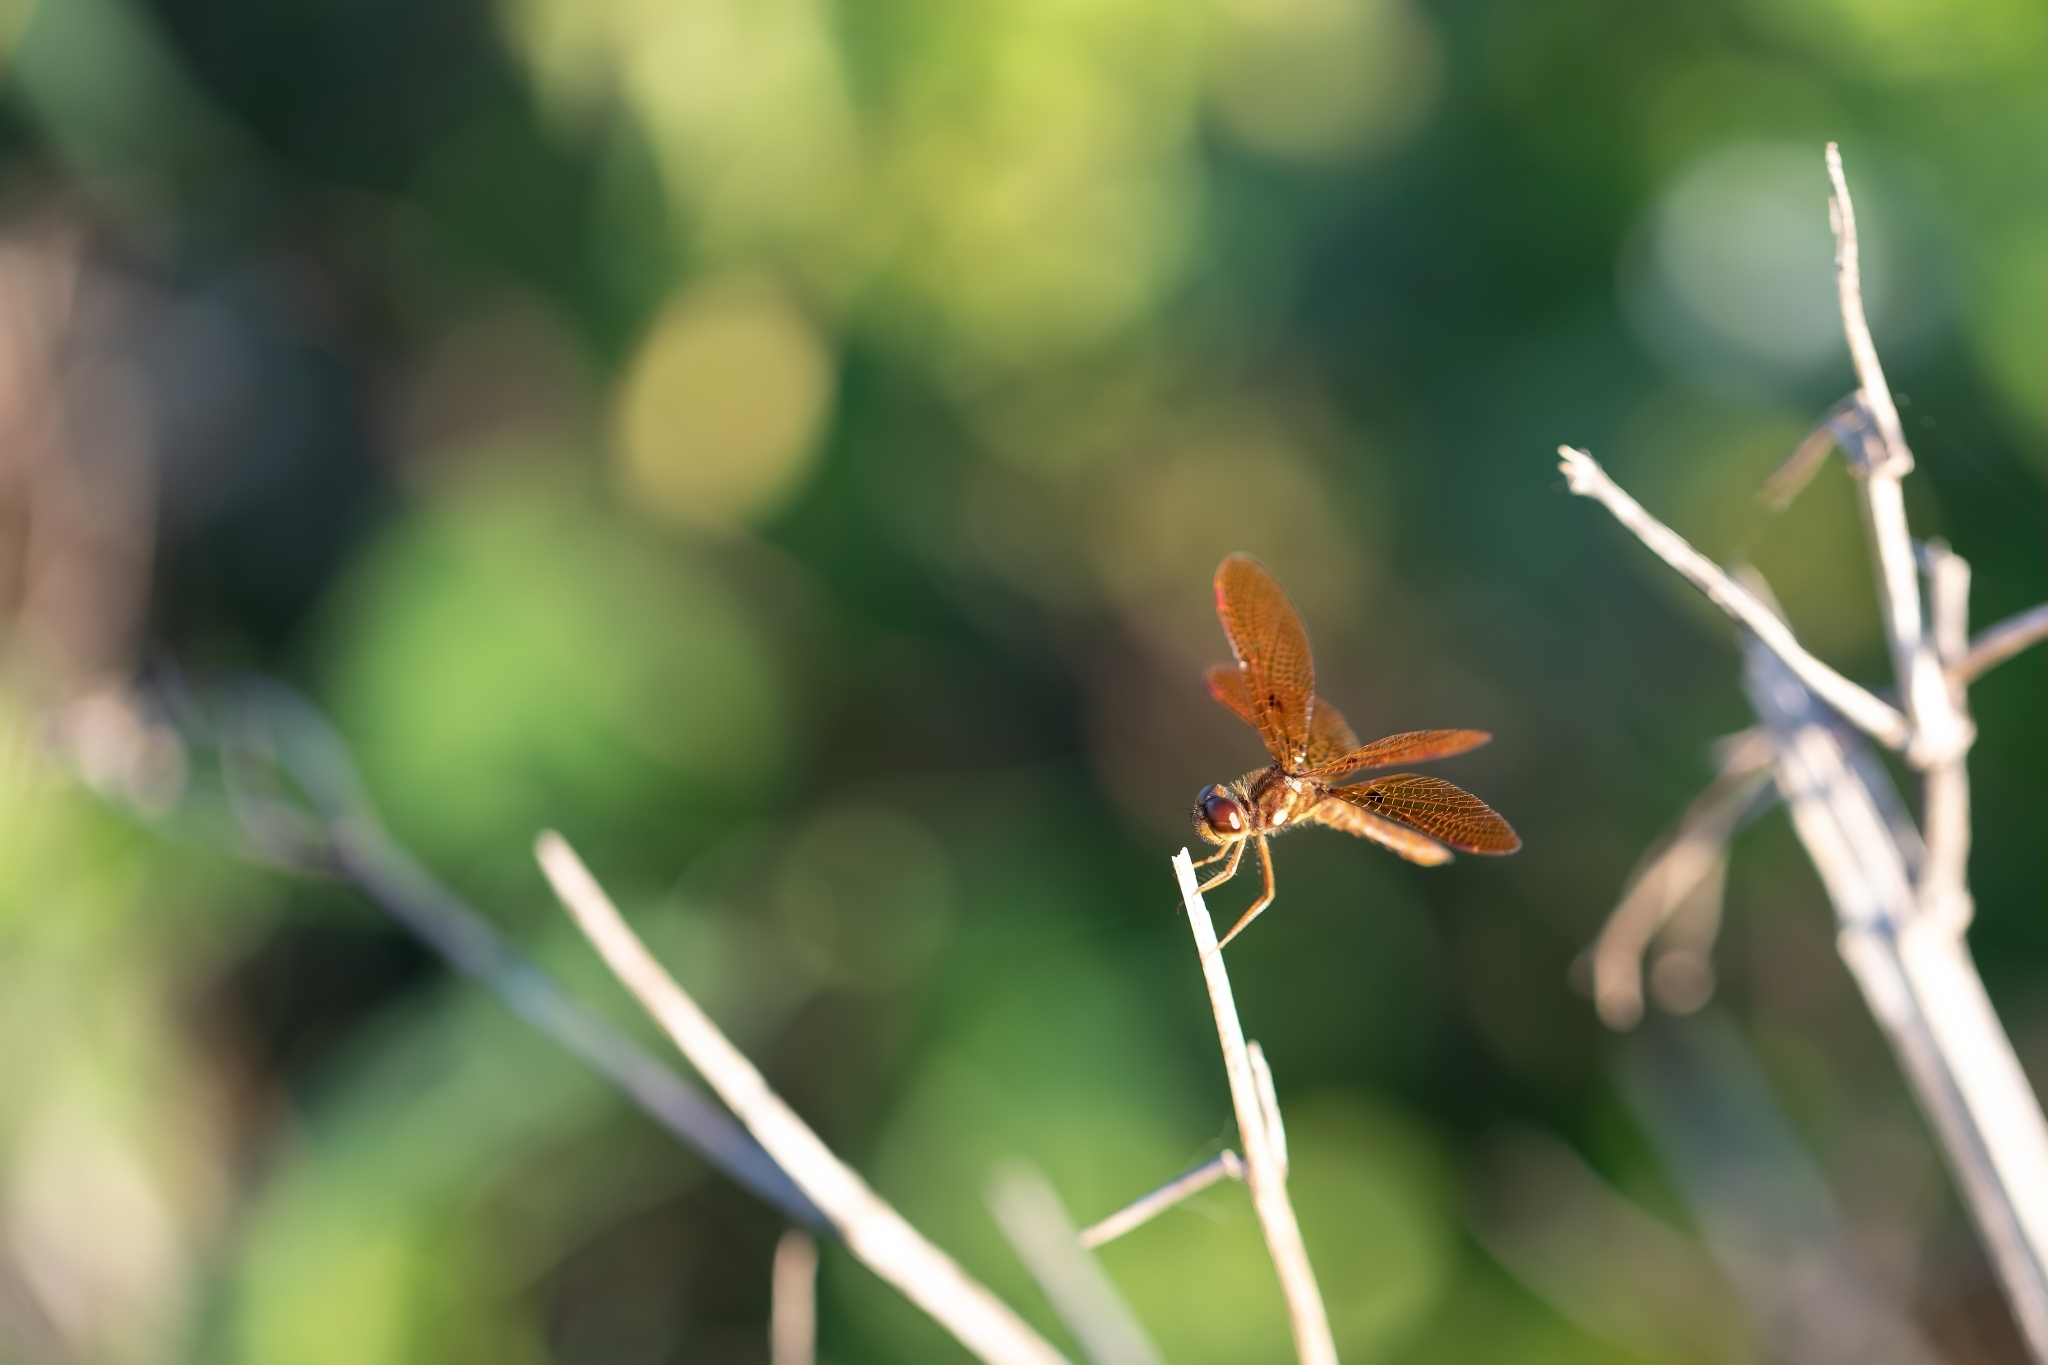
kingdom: Animalia
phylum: Arthropoda
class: Insecta
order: Odonata
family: Libellulidae
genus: Perithemis
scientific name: Perithemis tenera
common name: Eastern amberwing
